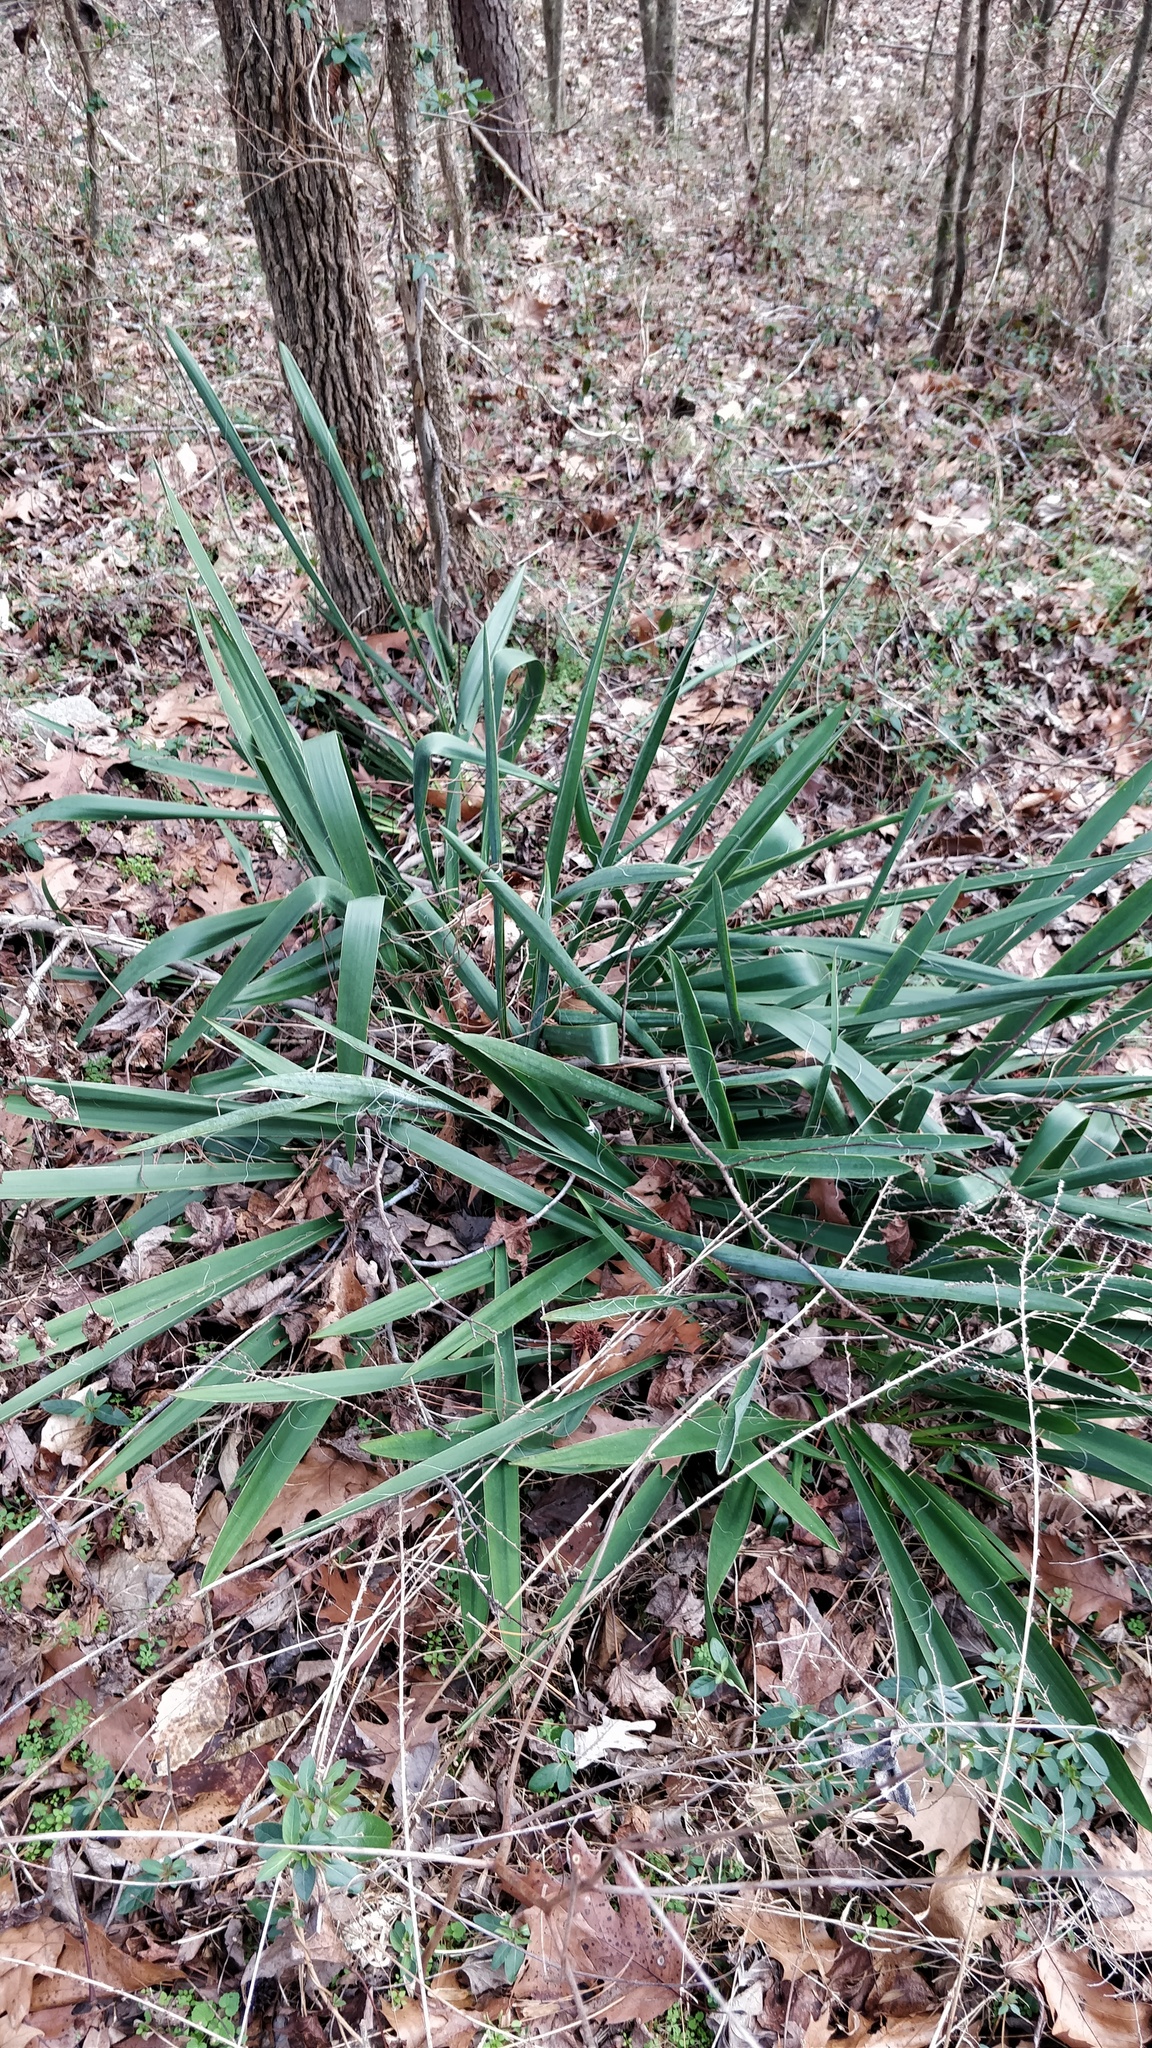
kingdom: Plantae
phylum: Tracheophyta
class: Liliopsida
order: Asparagales
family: Asparagaceae
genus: Yucca
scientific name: Yucca filamentosa
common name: Adam's-needle
